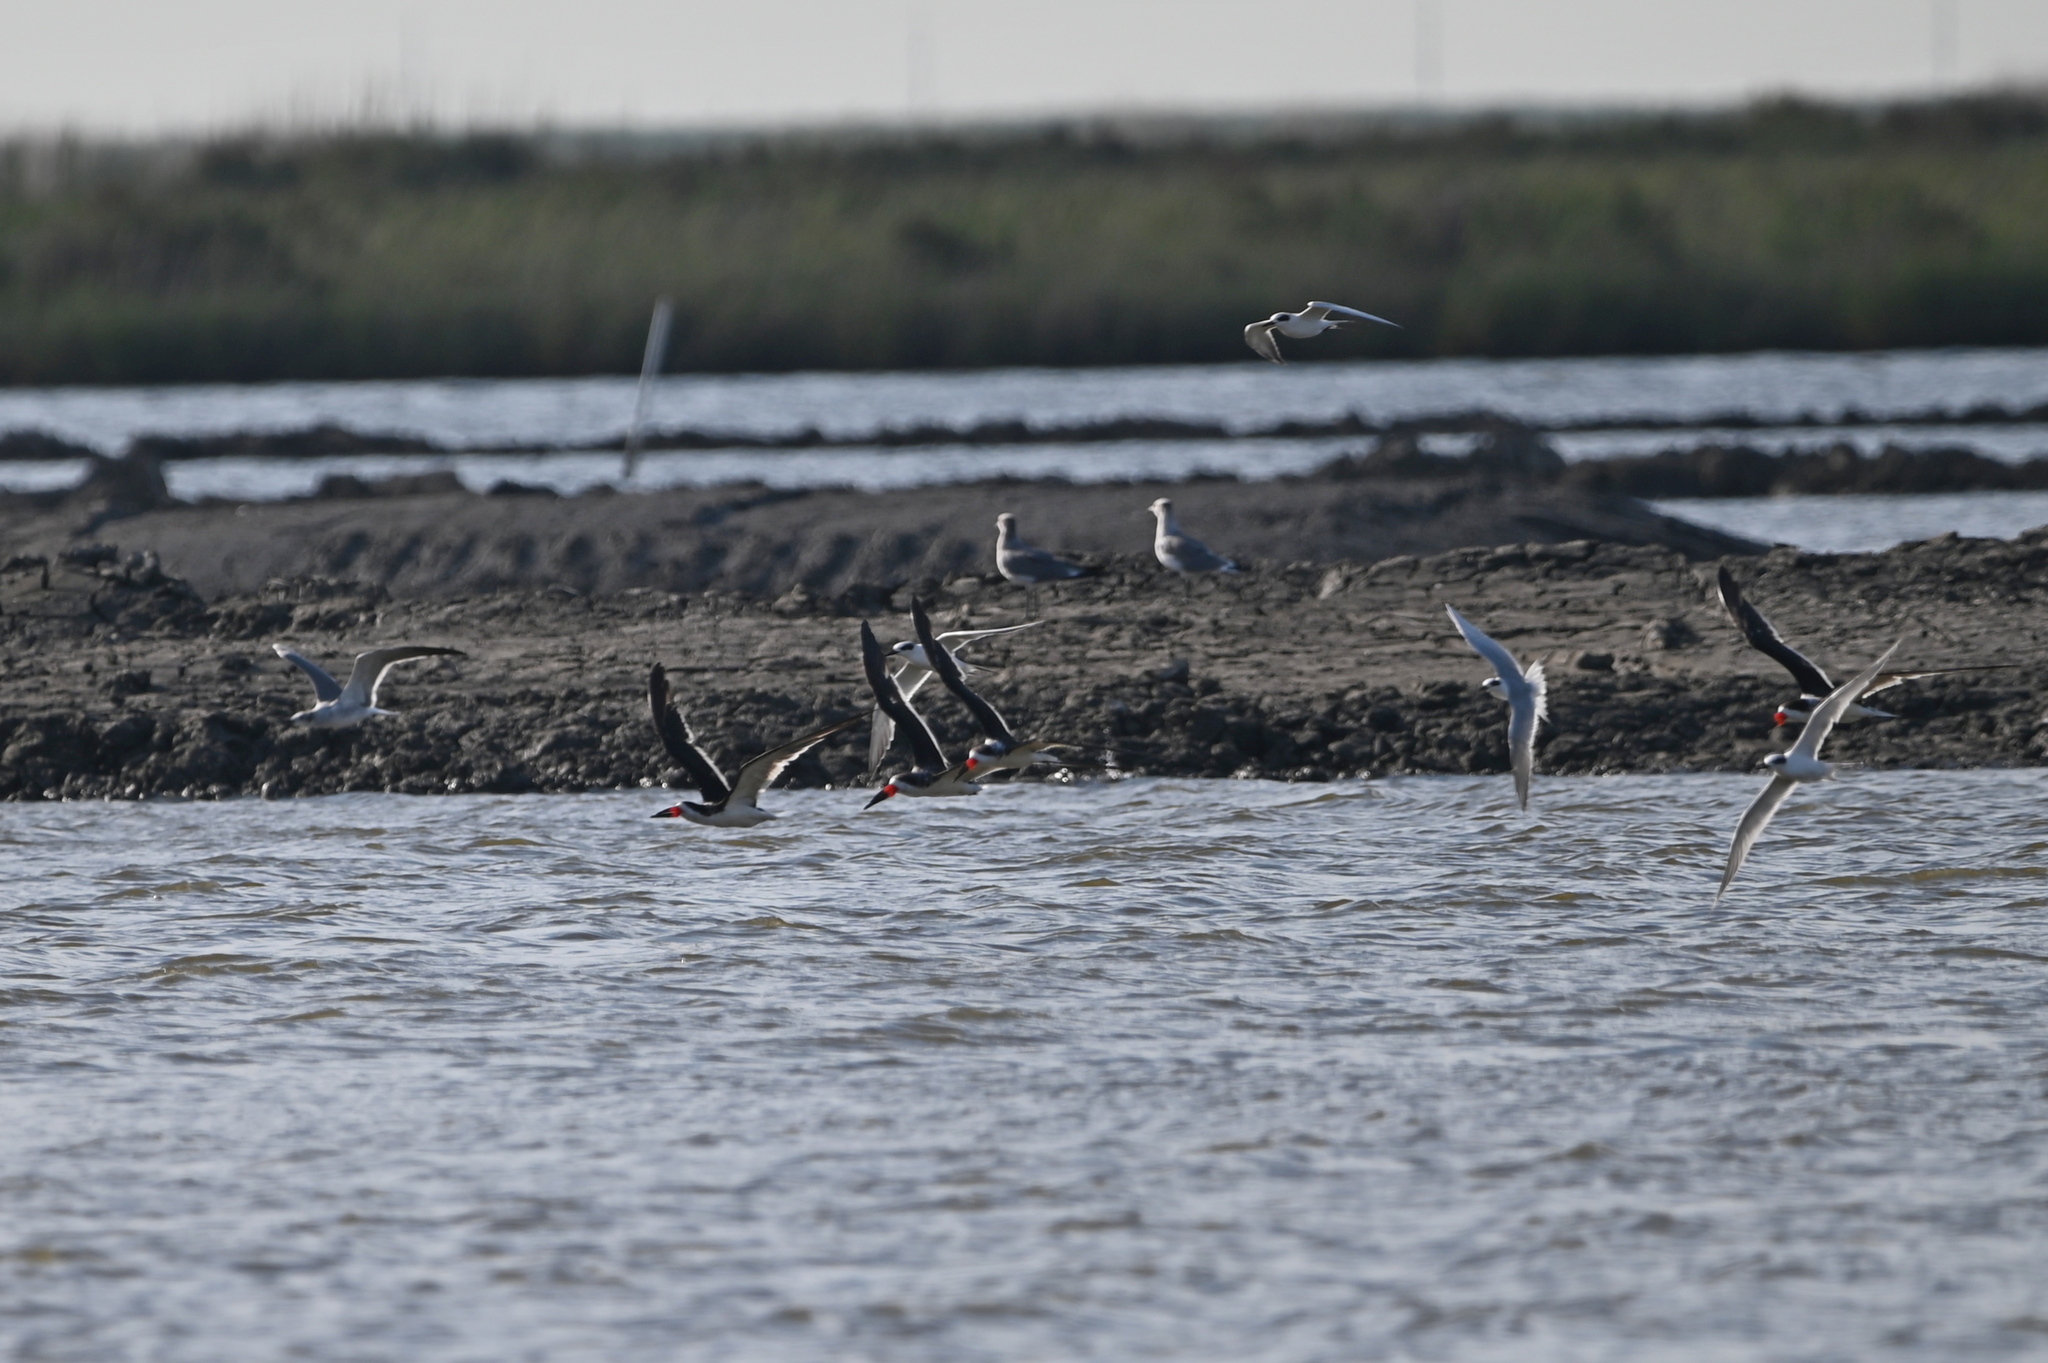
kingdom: Animalia
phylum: Chordata
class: Aves
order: Charadriiformes
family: Laridae
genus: Rynchops
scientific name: Rynchops niger
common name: Black skimmer
